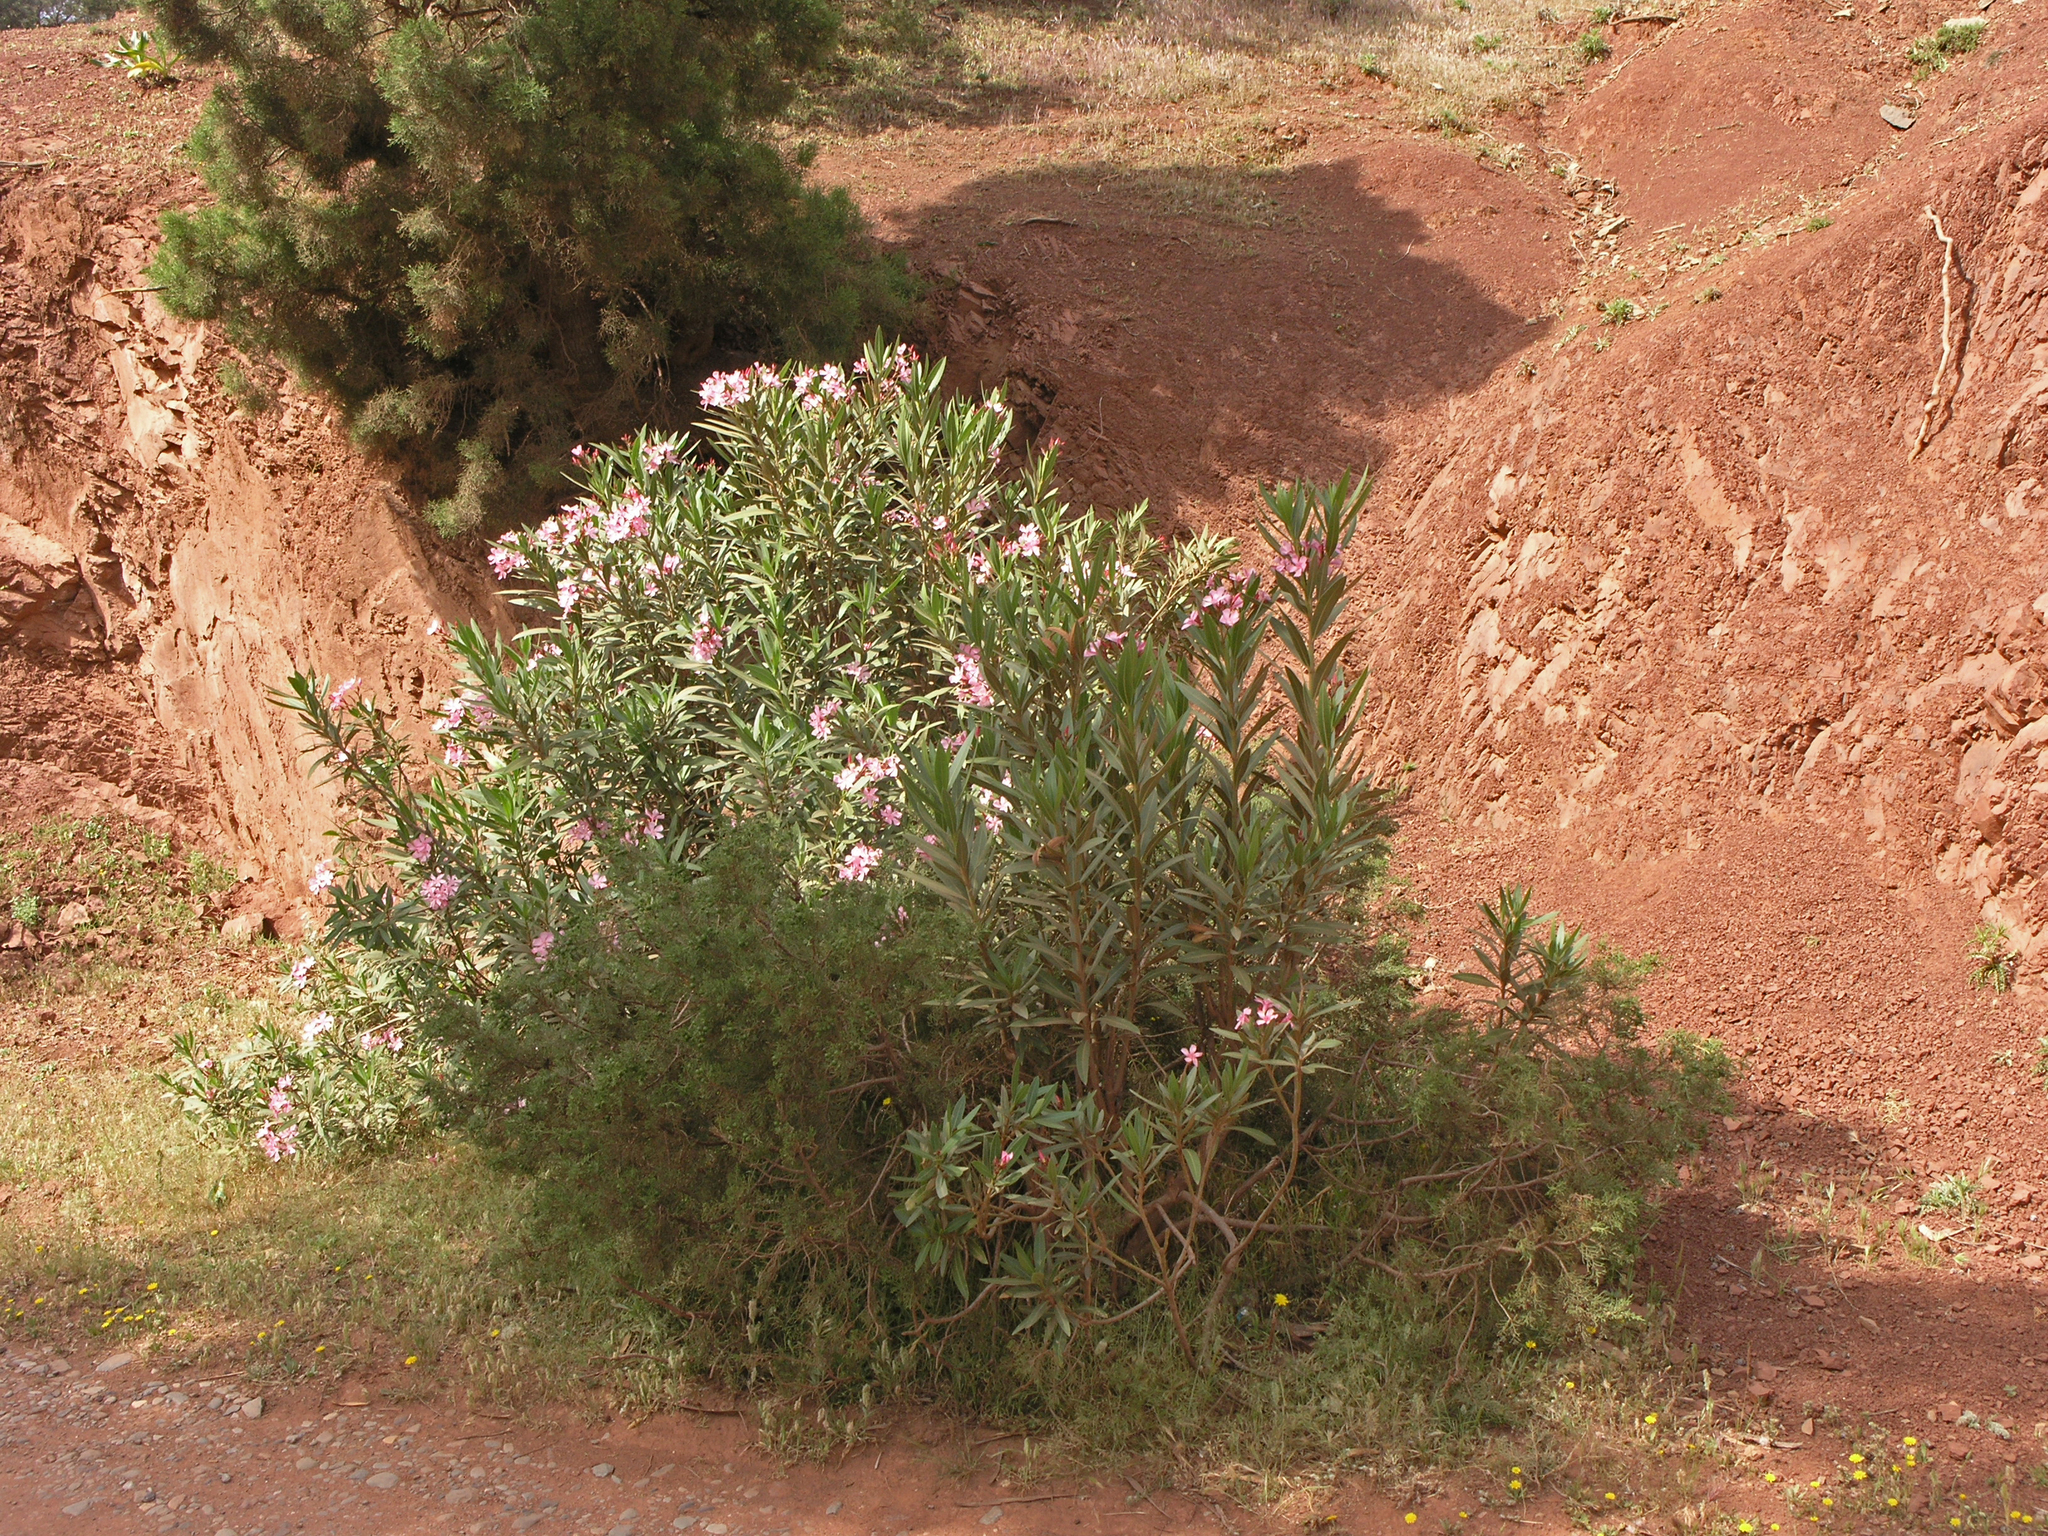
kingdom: Plantae
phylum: Tracheophyta
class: Magnoliopsida
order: Gentianales
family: Apocynaceae
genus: Nerium
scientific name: Nerium oleander
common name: Oleander
